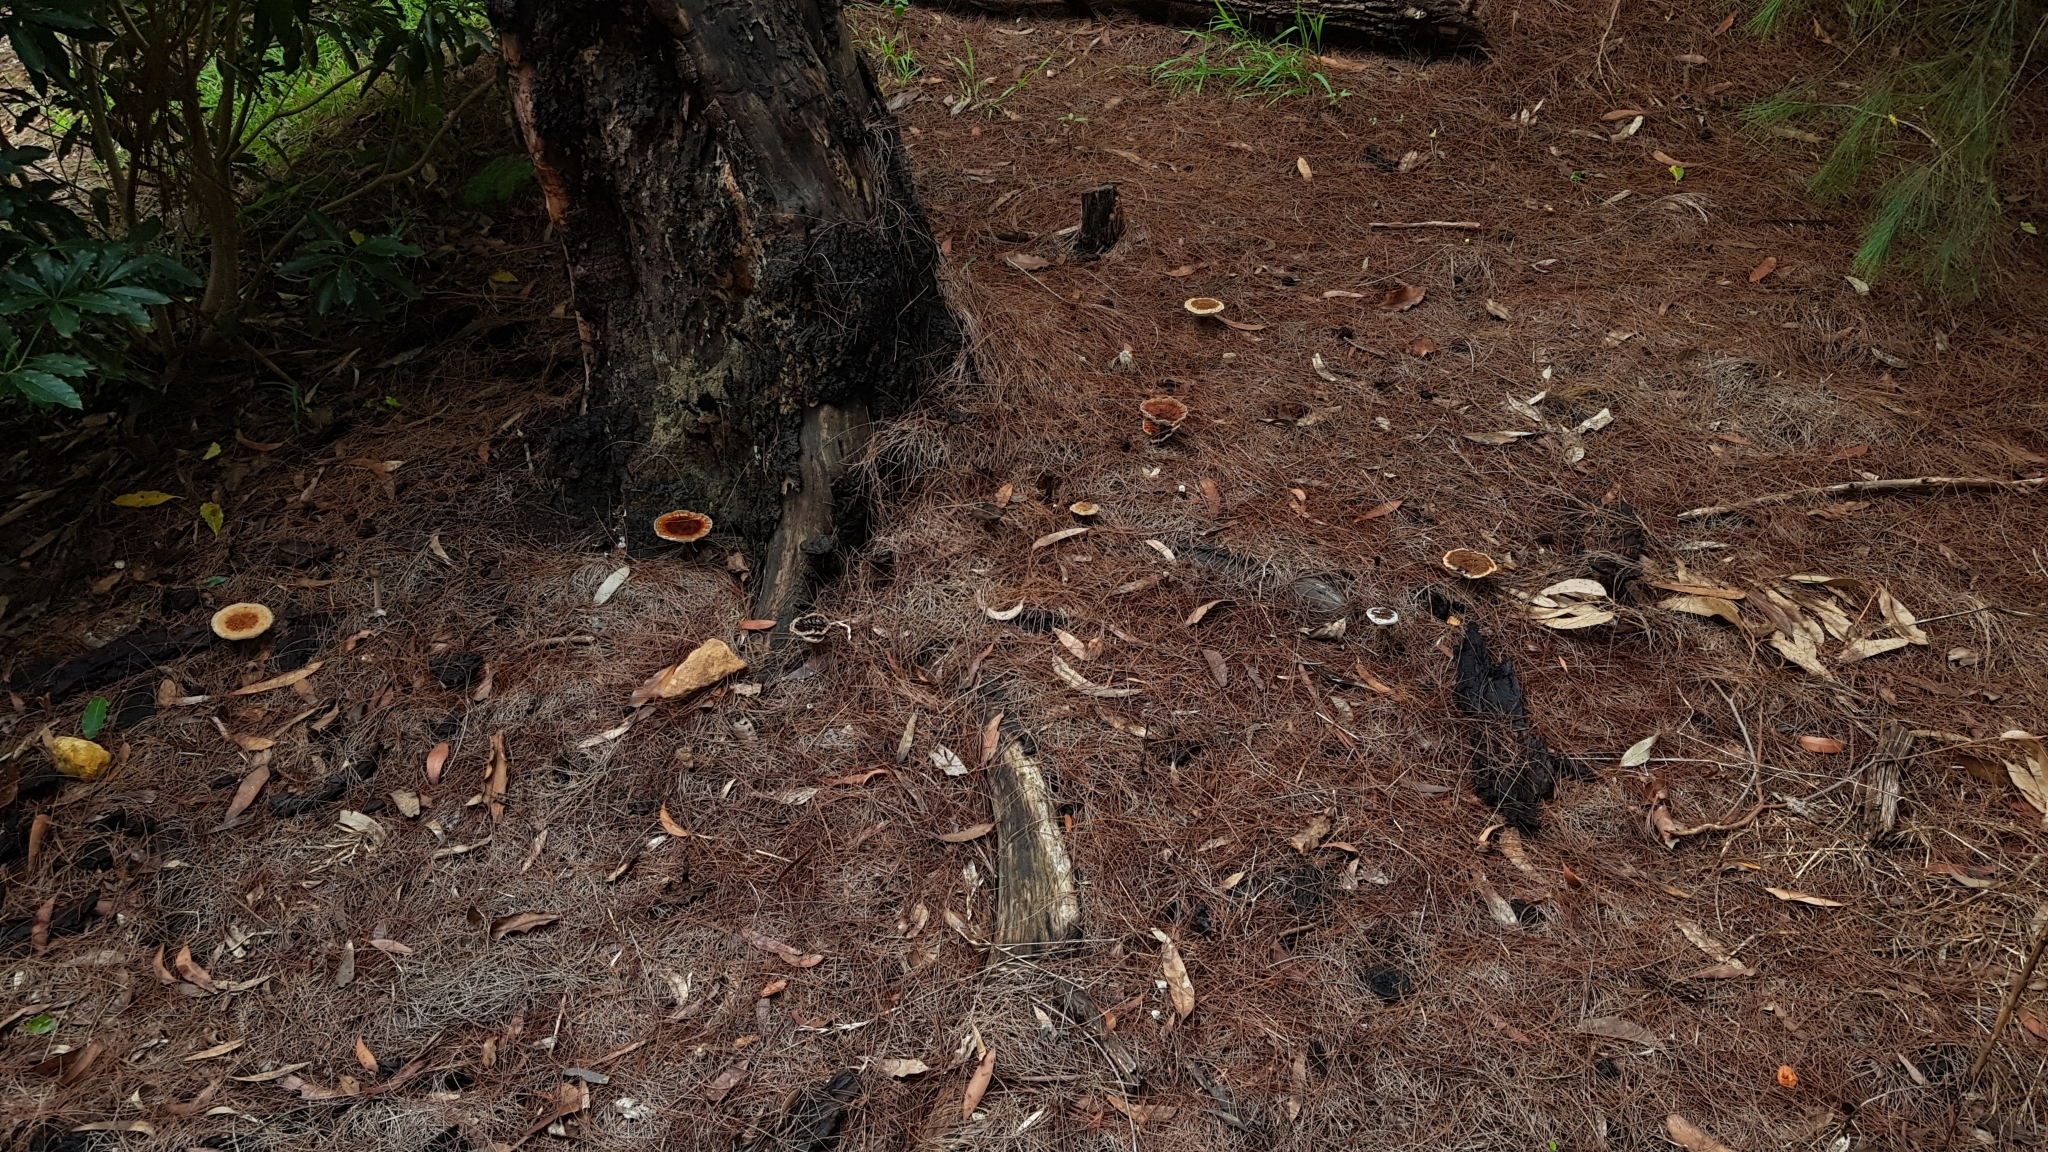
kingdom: Fungi
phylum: Basidiomycota
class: Agaricomycetes
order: Polyporales
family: Ganodermataceae
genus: Sanguinoderma
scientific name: Sanguinoderma rude
